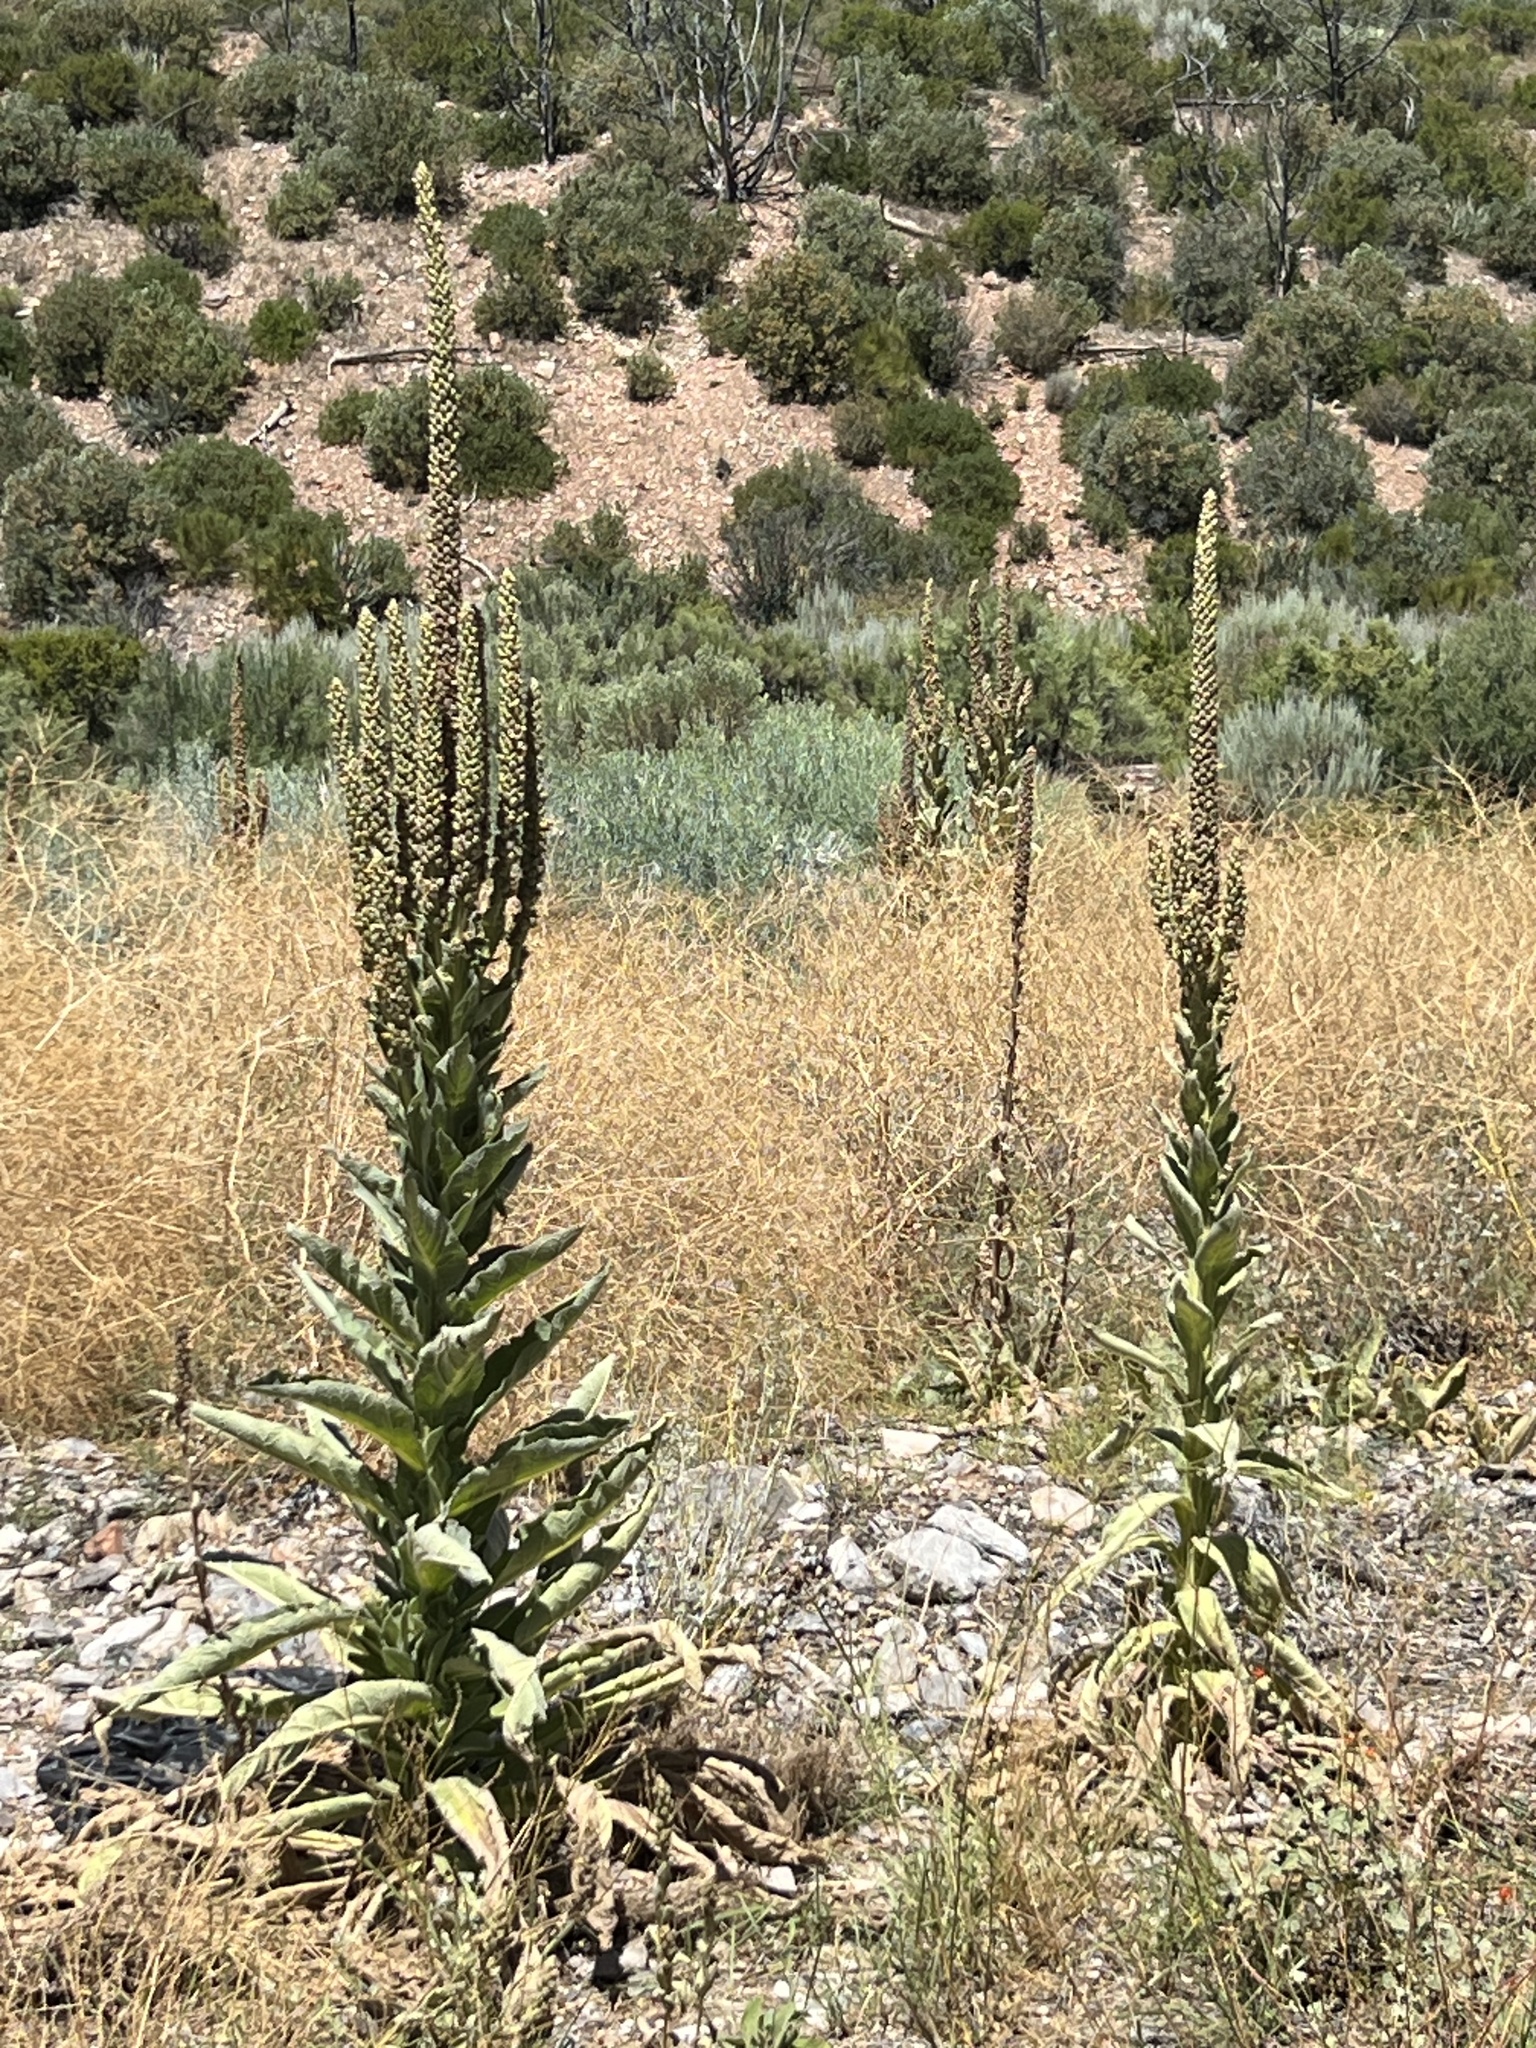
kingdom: Plantae
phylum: Tracheophyta
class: Magnoliopsida
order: Lamiales
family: Scrophulariaceae
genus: Verbascum
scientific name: Verbascum thapsus
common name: Common mullein
